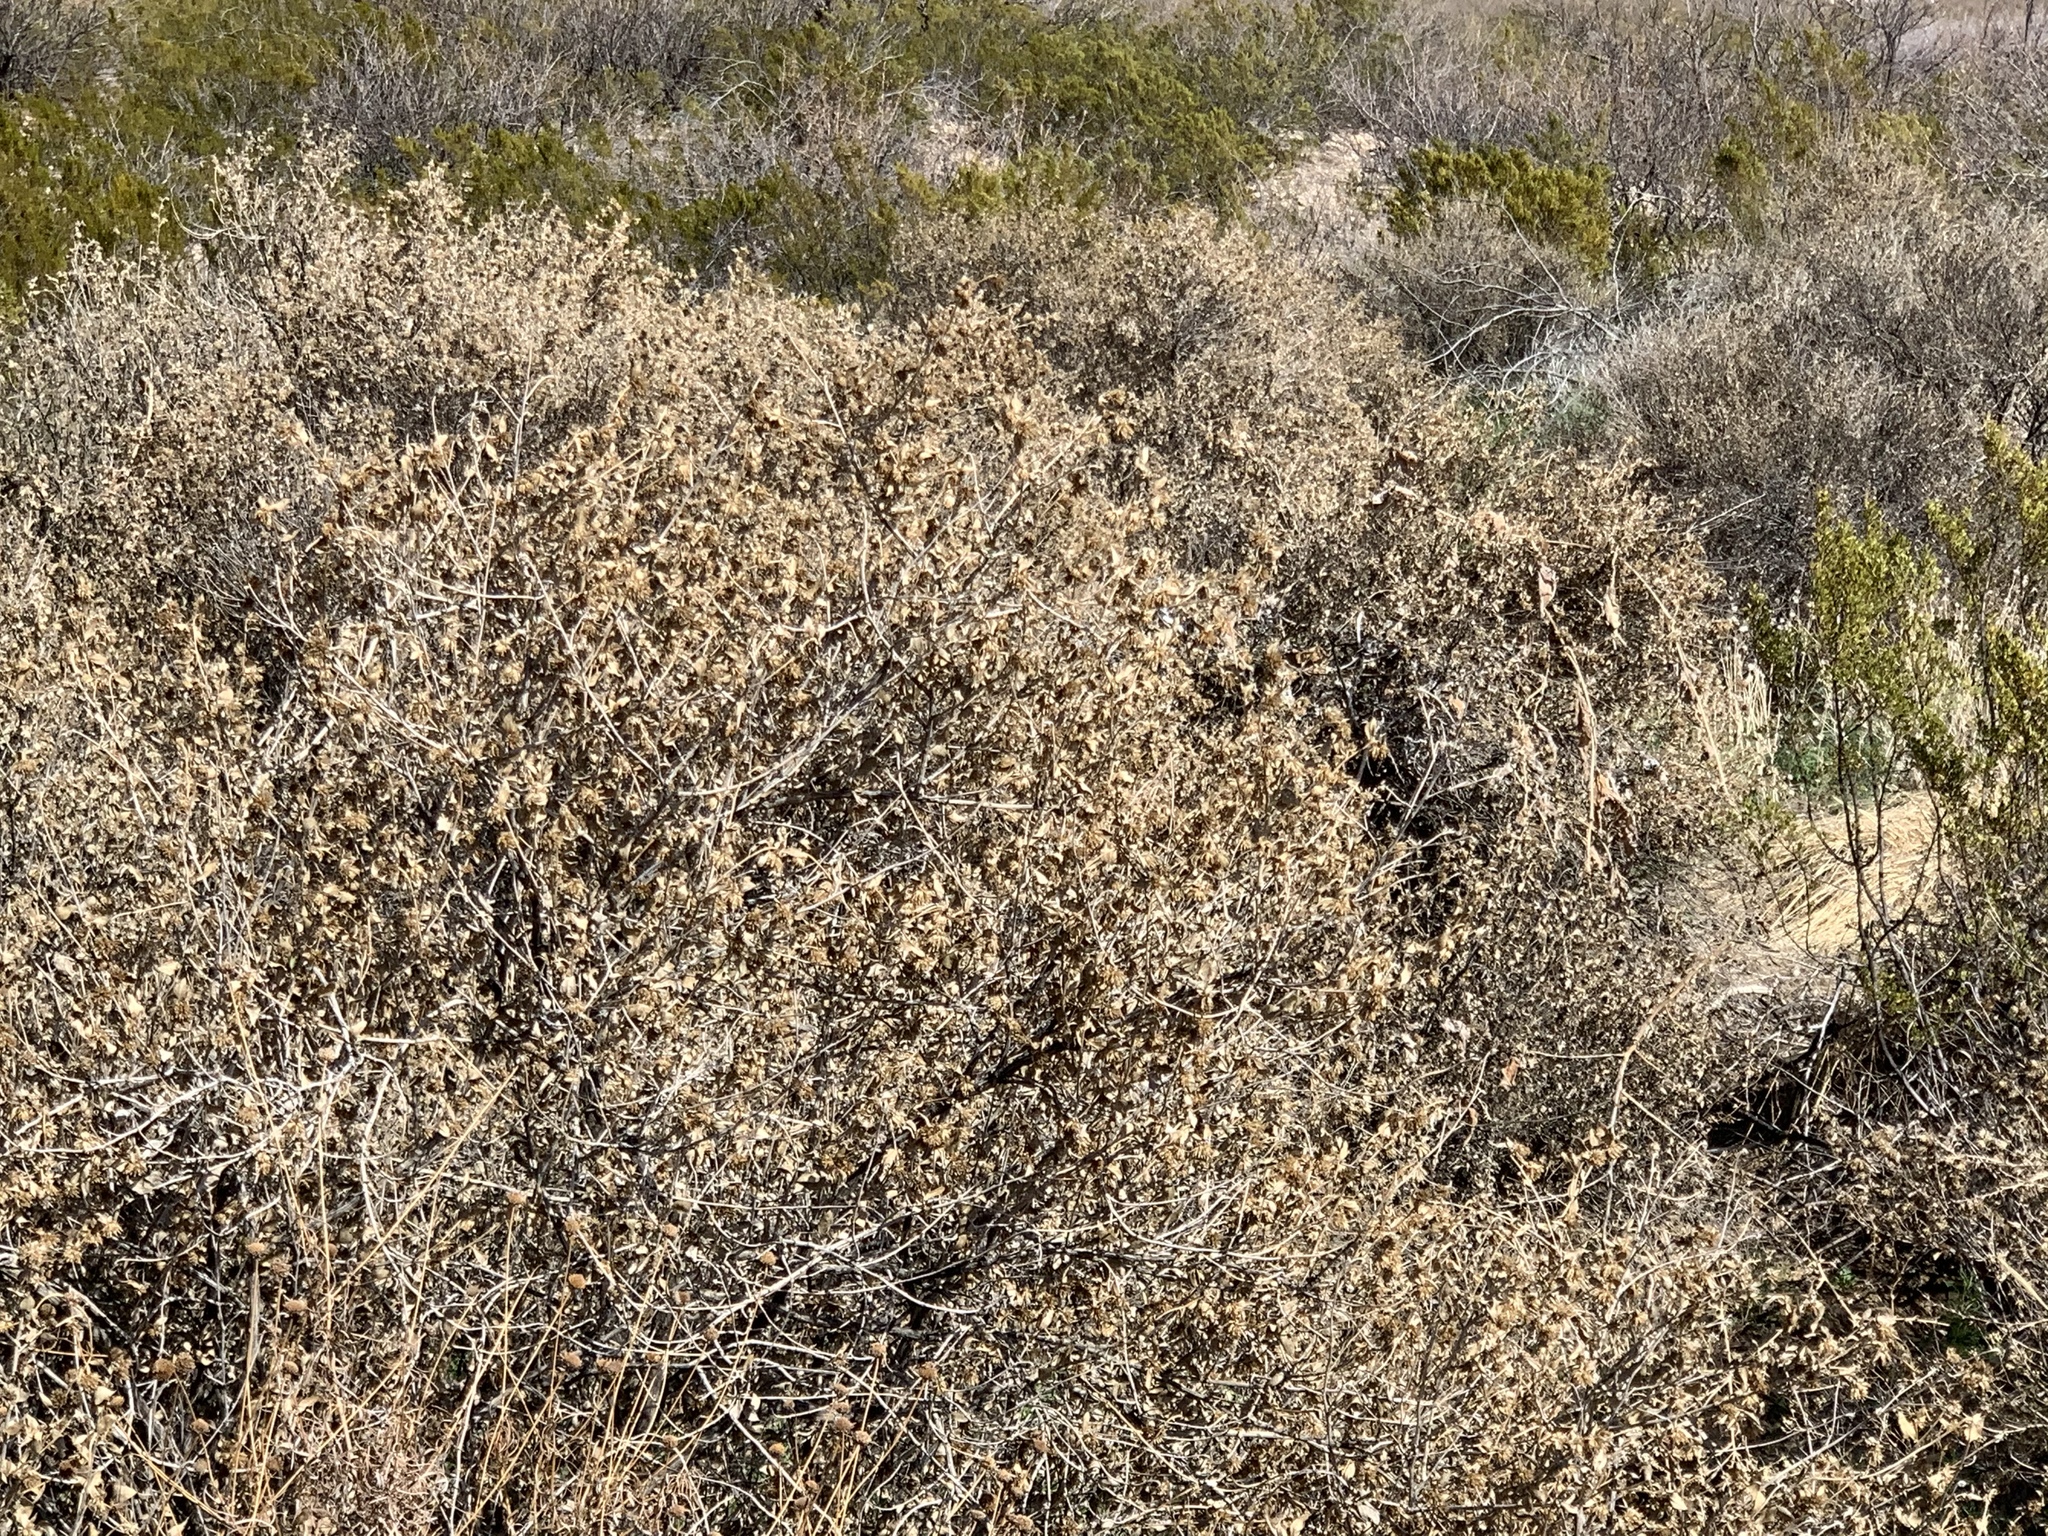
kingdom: Plantae
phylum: Tracheophyta
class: Magnoliopsida
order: Asterales
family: Asteraceae
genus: Flourensia
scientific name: Flourensia cernua
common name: Varnishbush
